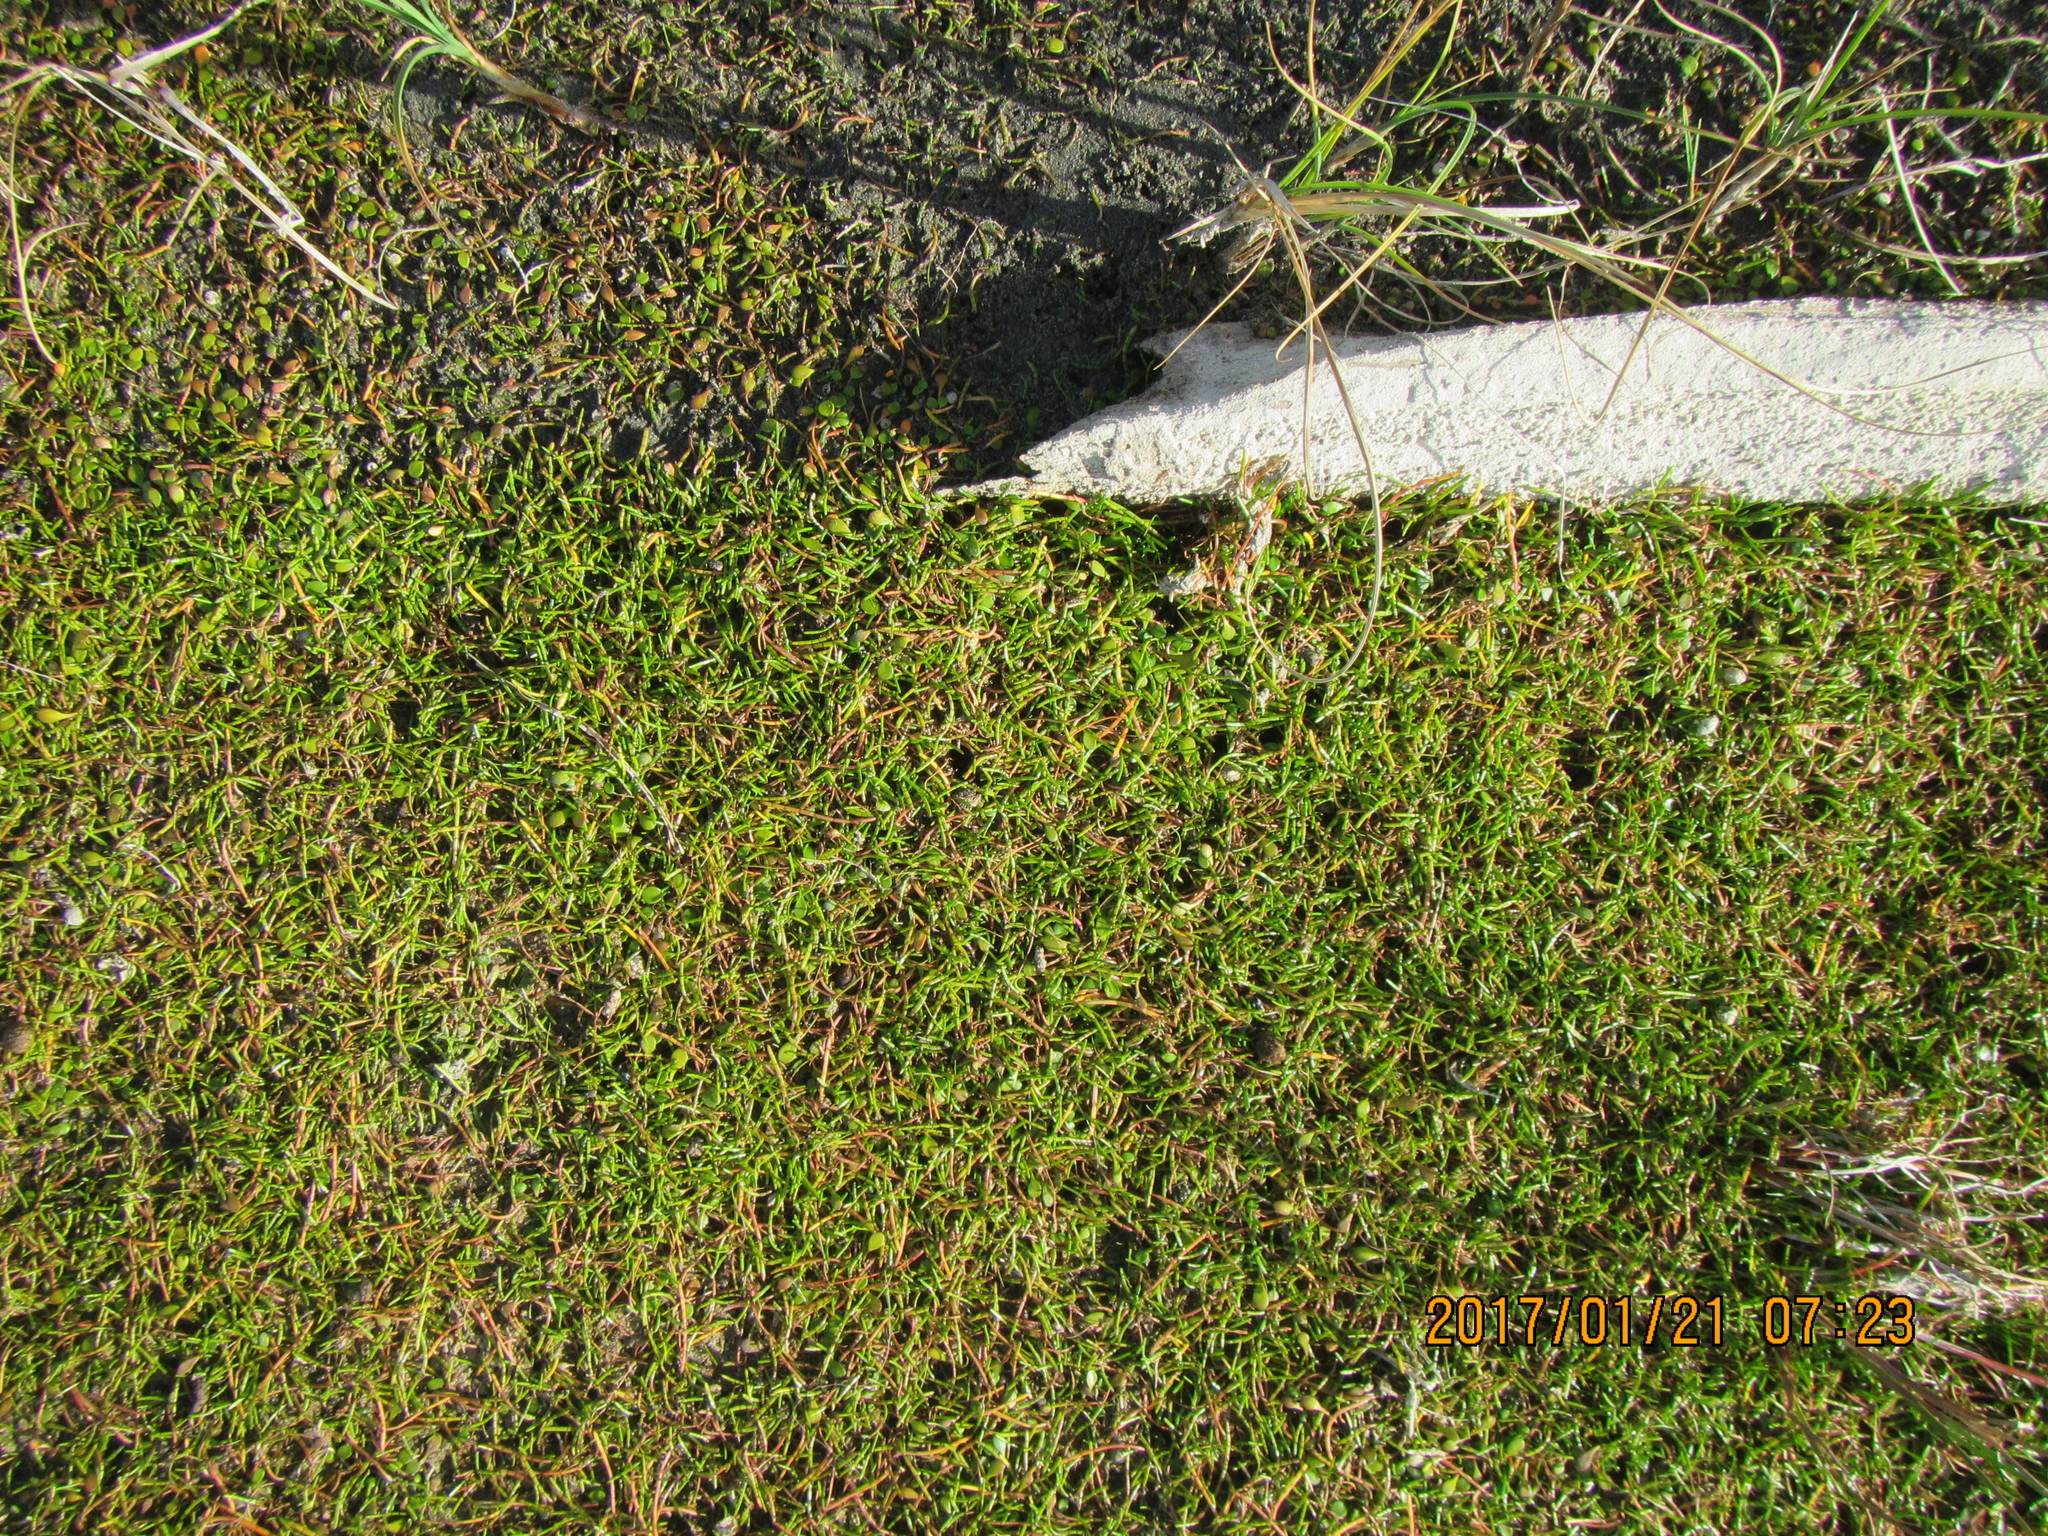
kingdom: Plantae
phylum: Tracheophyta
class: Magnoliopsida
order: Apiales
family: Apiaceae
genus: Lilaeopsis
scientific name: Lilaeopsis novae-zelandiae
